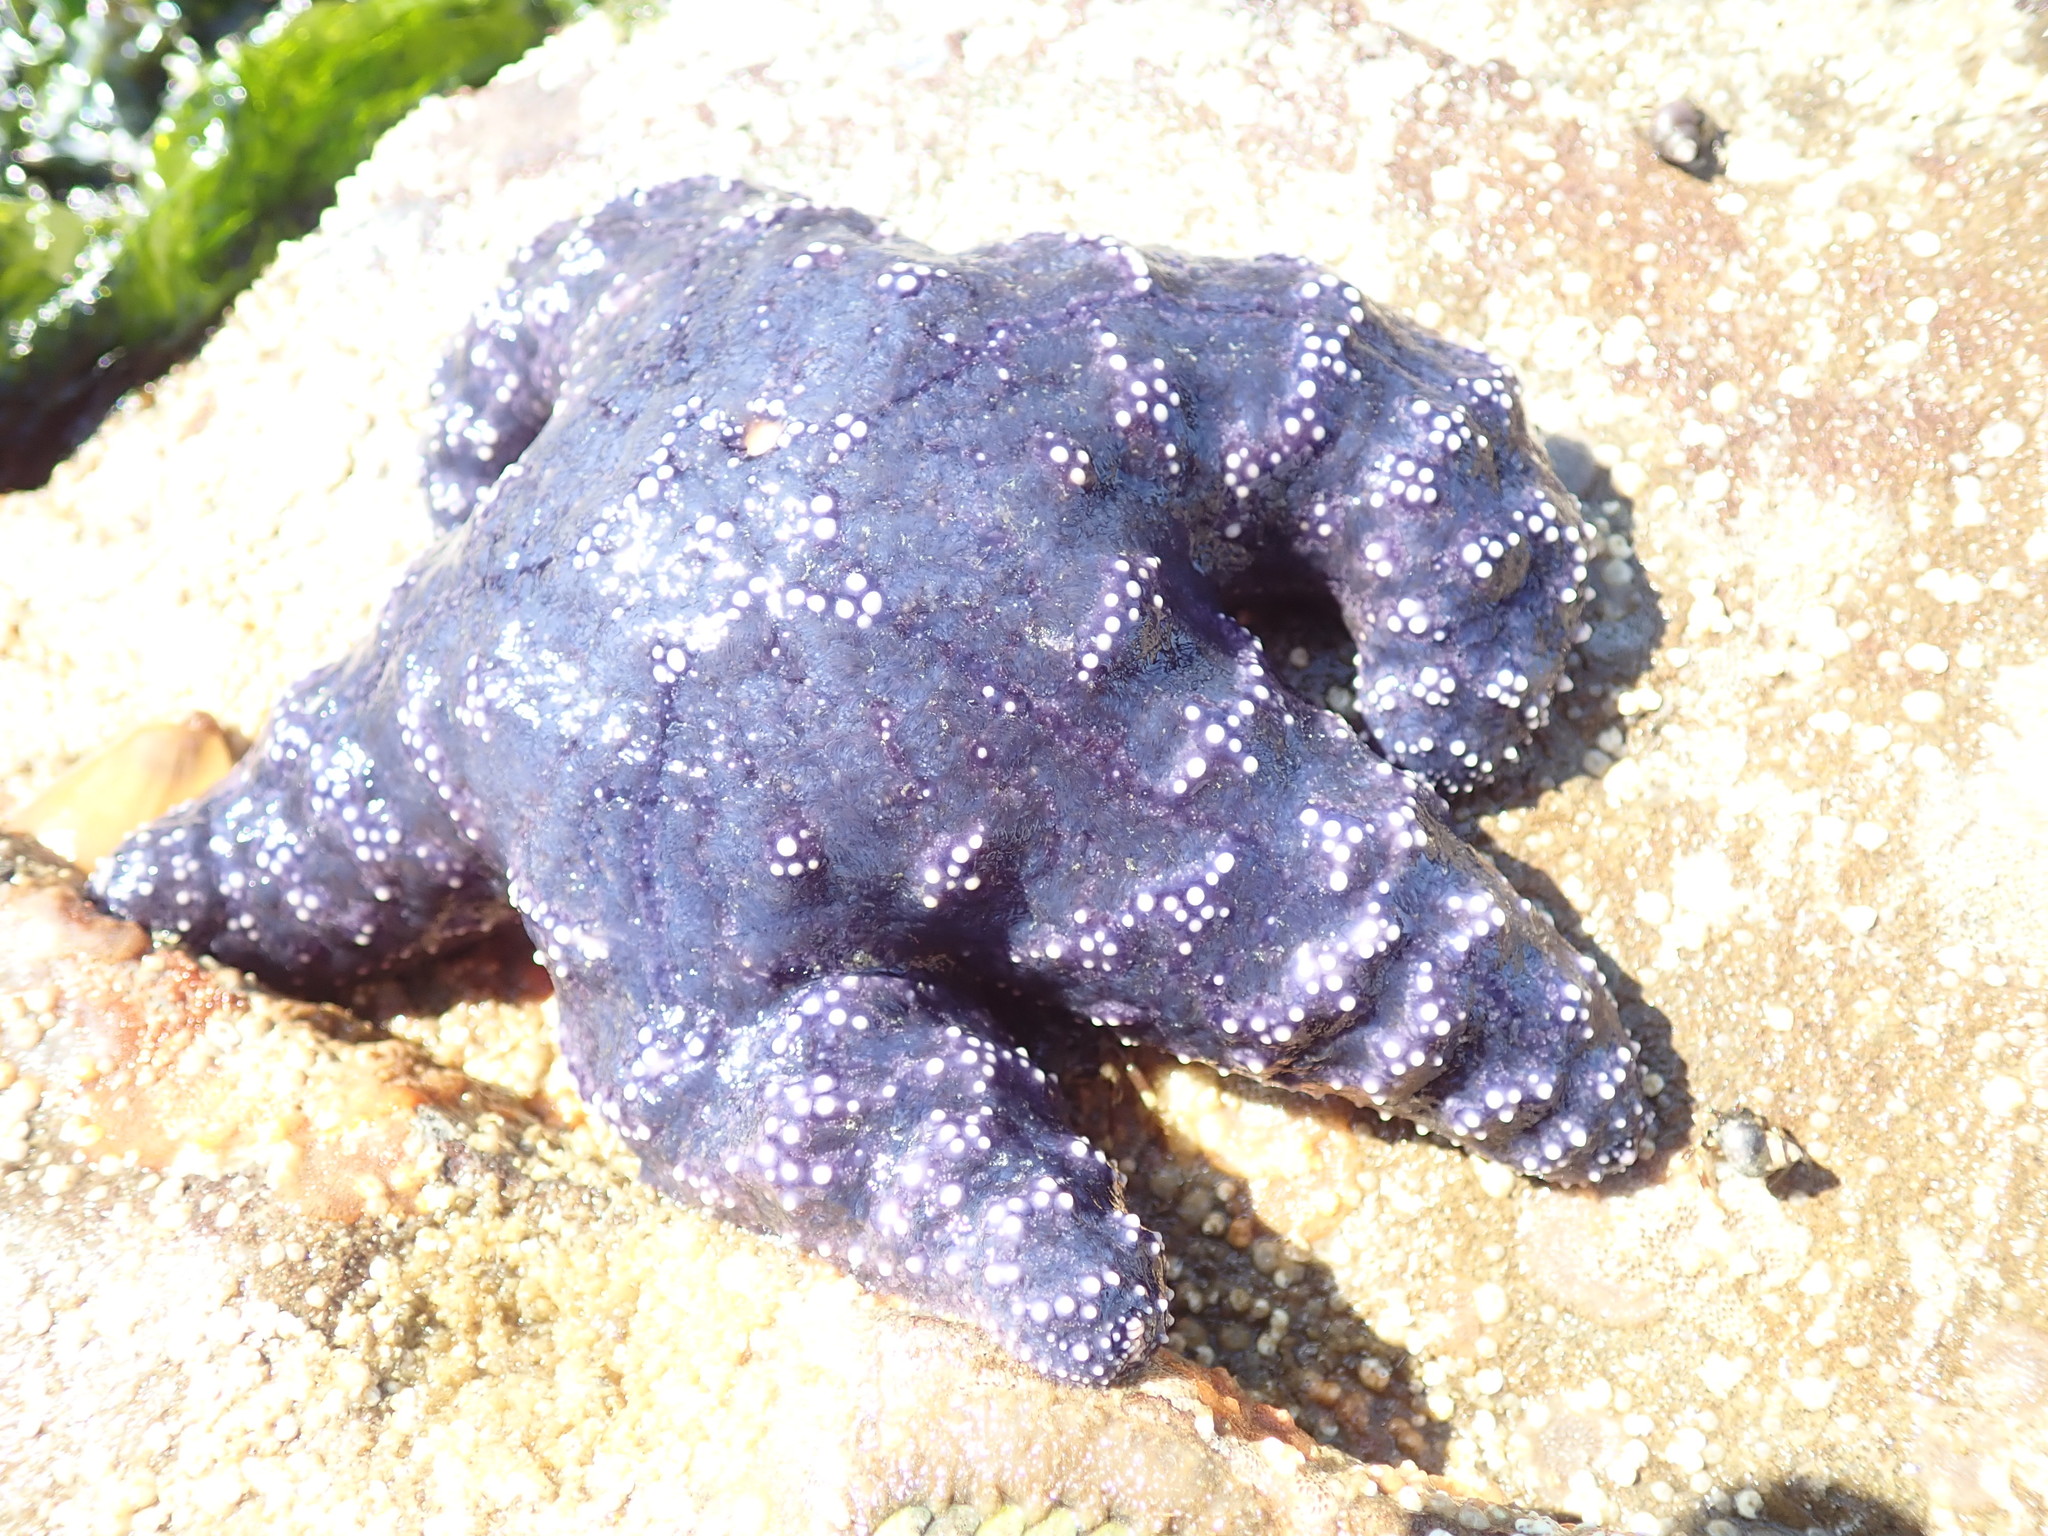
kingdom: Animalia
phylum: Echinodermata
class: Asteroidea
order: Forcipulatida
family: Asteriidae
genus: Pisaster
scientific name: Pisaster ochraceus
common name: Ochre stars
